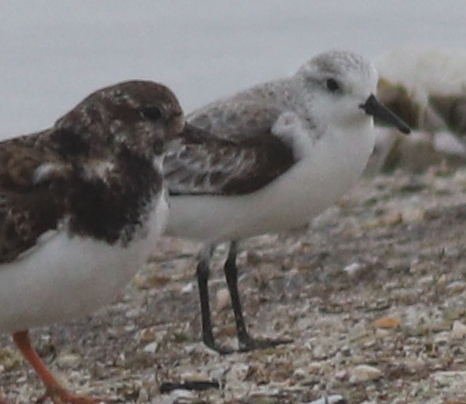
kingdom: Animalia
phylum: Chordata
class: Aves
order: Charadriiformes
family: Scolopacidae
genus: Calidris
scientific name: Calidris alba
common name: Sanderling
